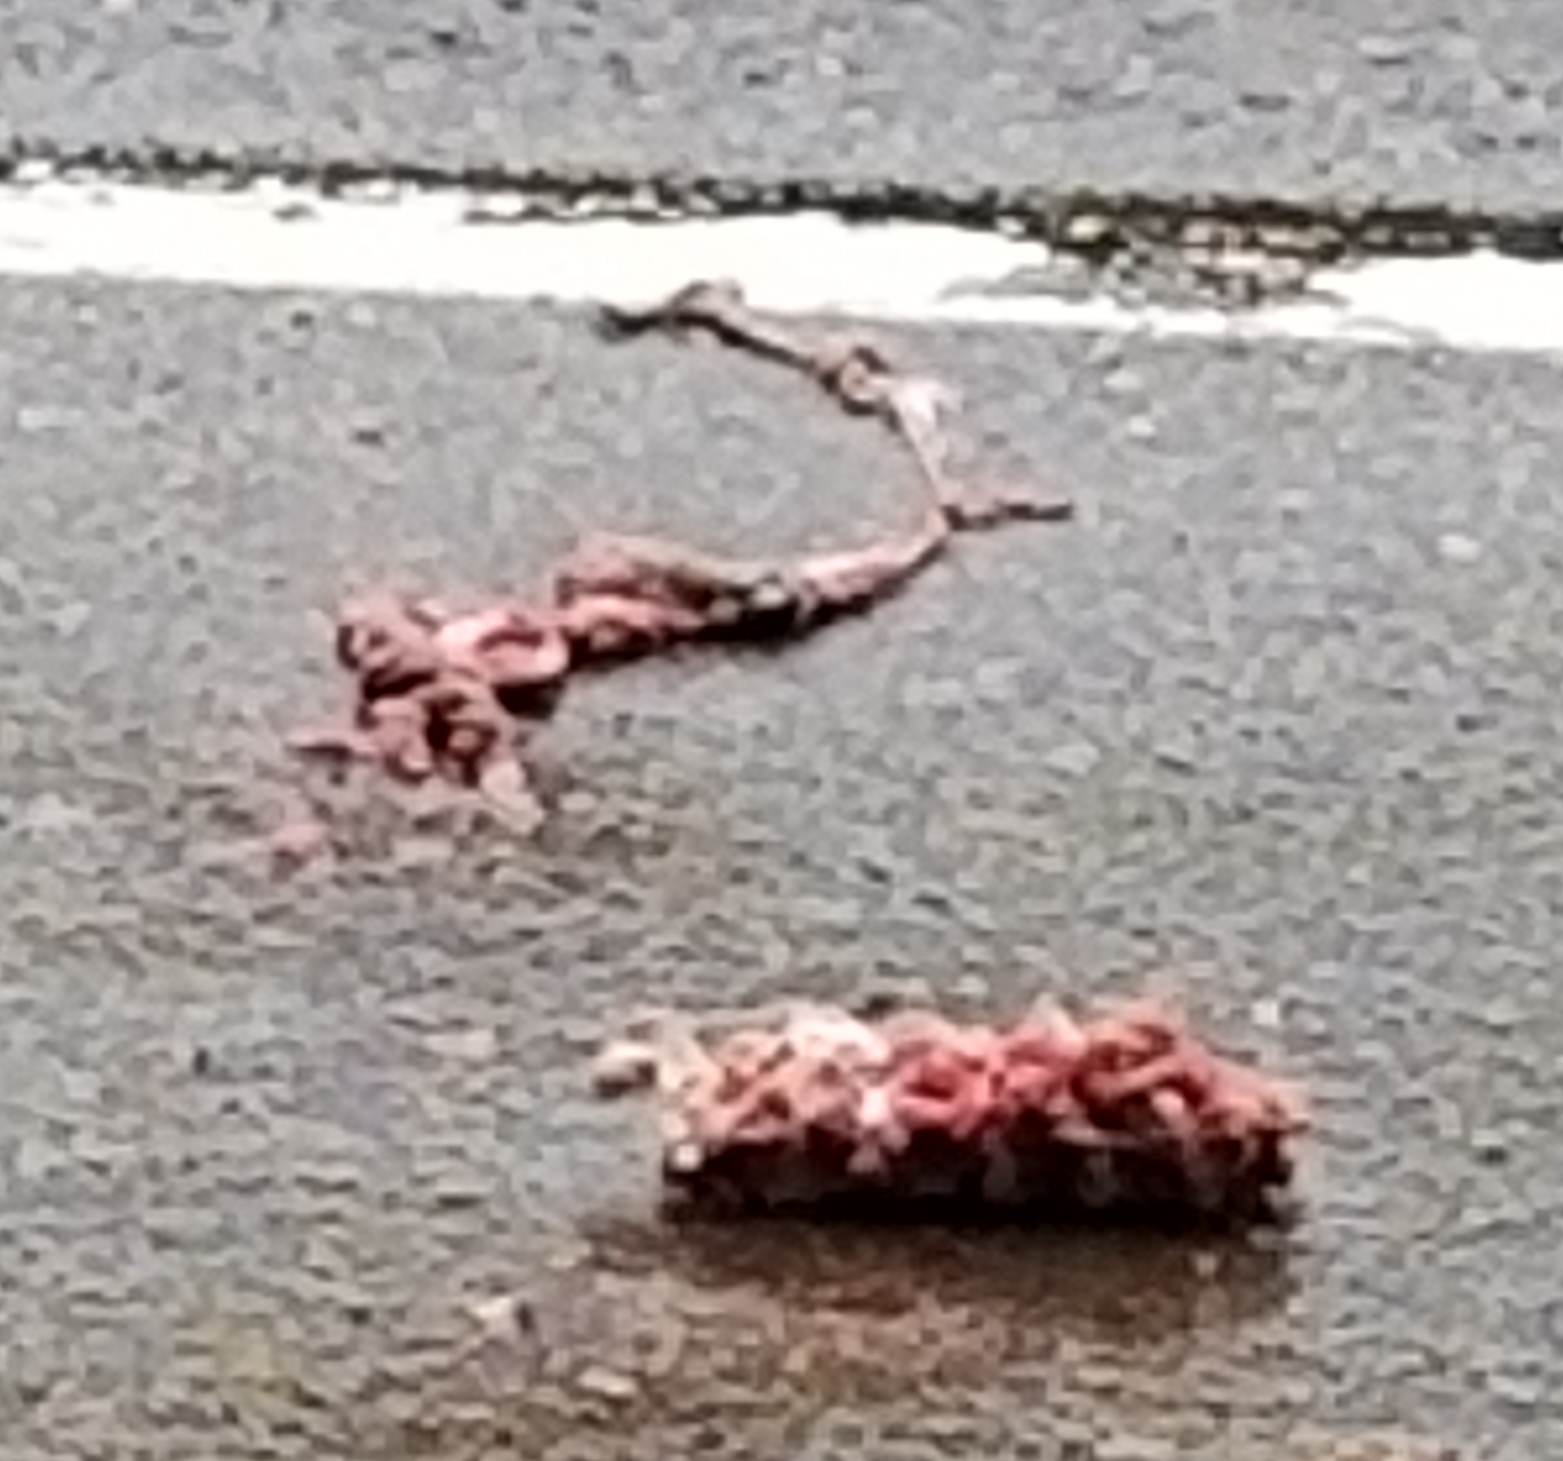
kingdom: Animalia
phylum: Chordata
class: Mammalia
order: Artiodactyla
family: Cervidae
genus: Odocoileus
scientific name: Odocoileus hemionus
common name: Mule deer
